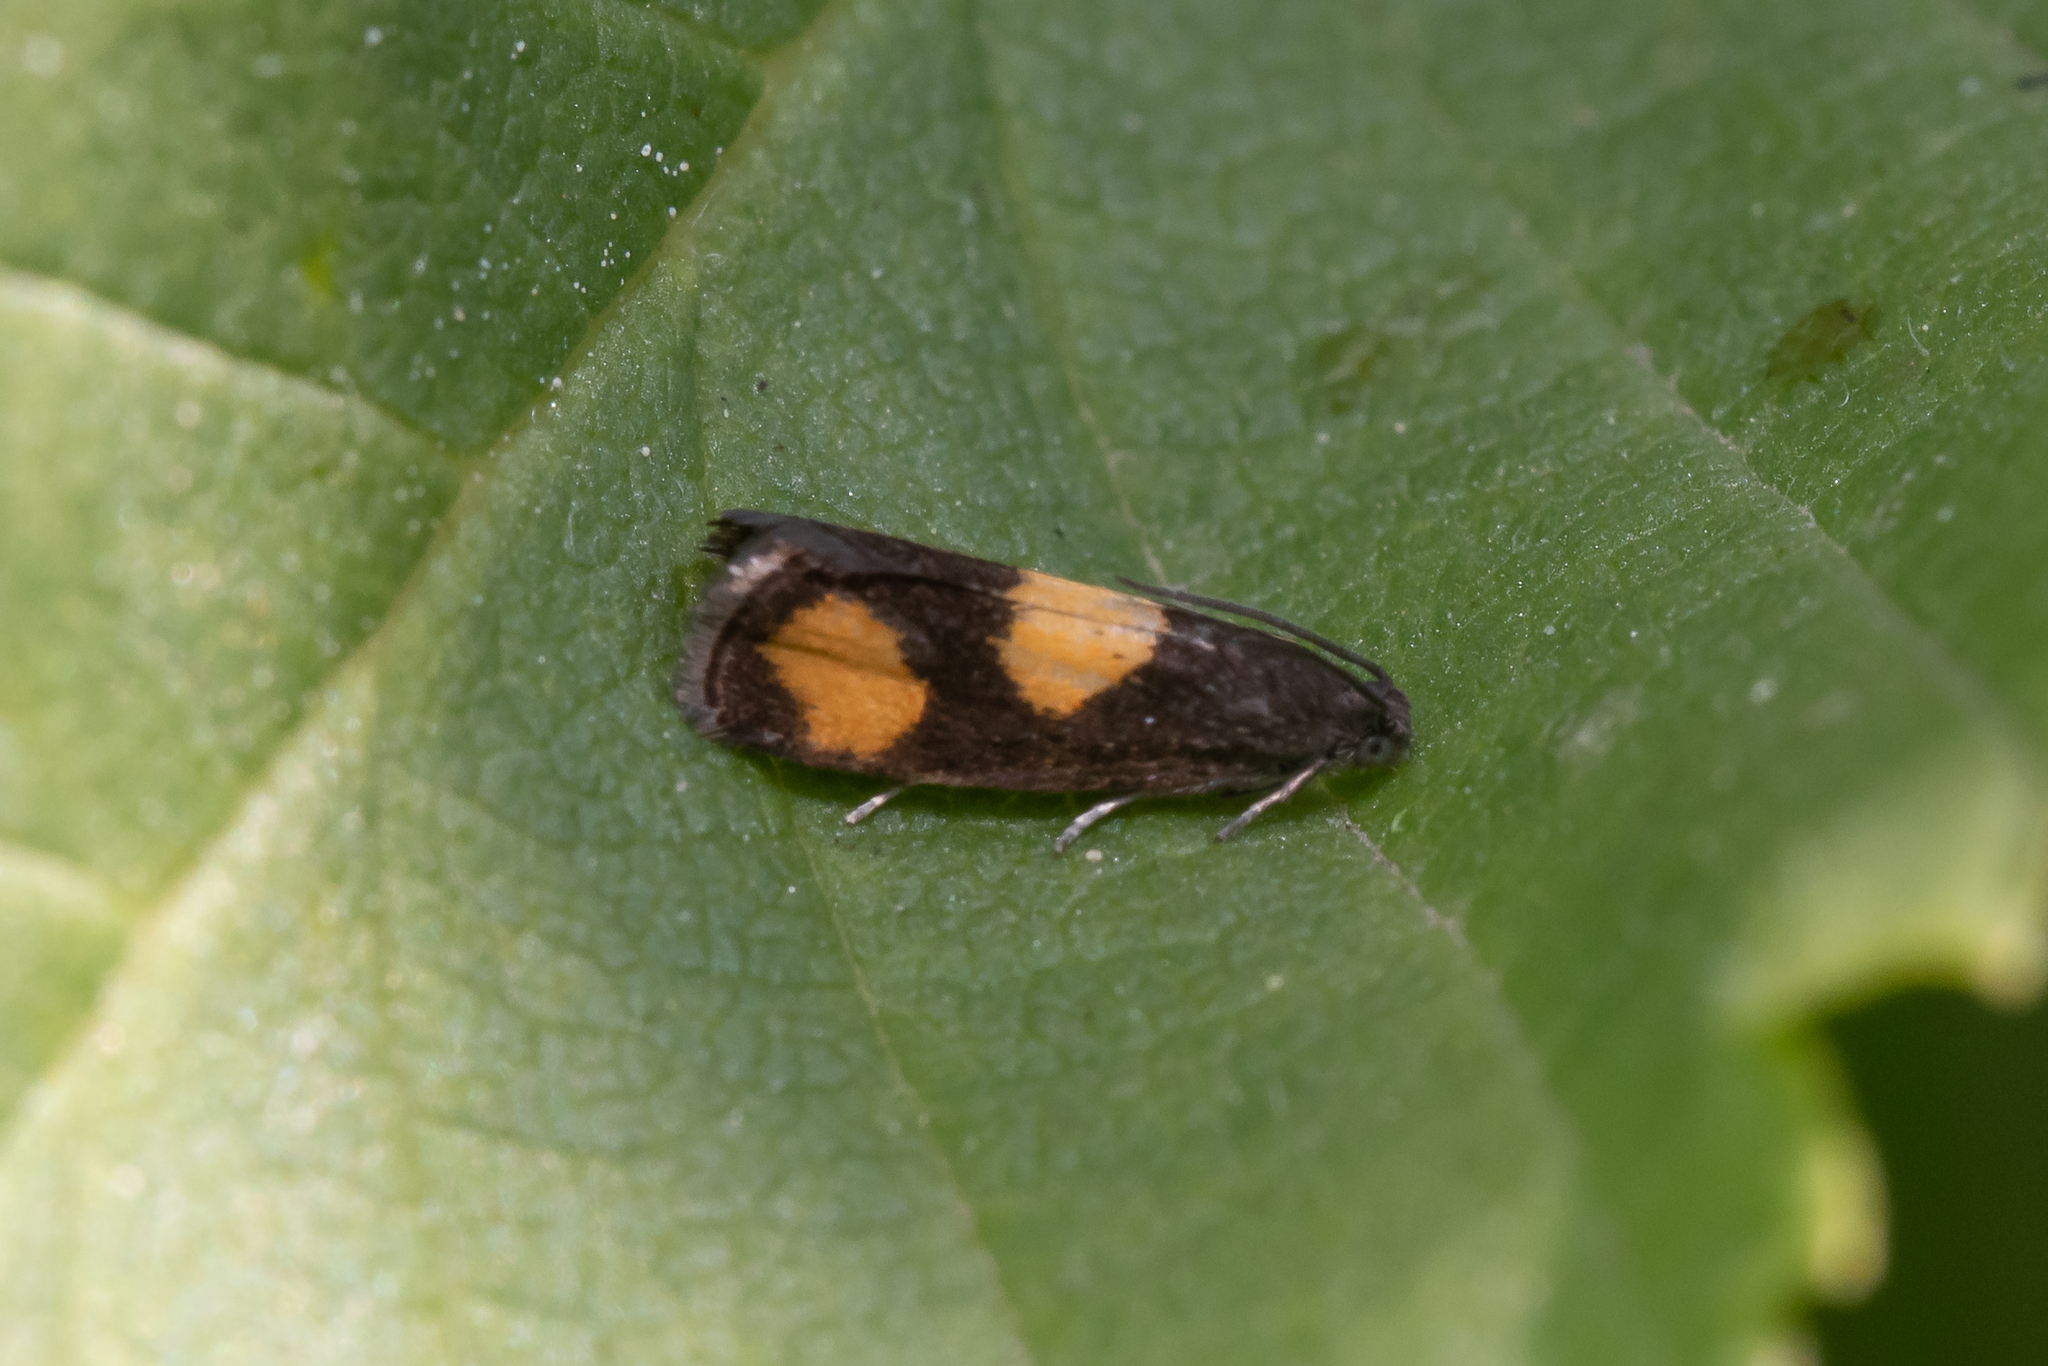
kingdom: Animalia
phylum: Arthropoda
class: Insecta
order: Lepidoptera
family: Tortricidae
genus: Pammene
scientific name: Pammene aurana
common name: Orange-spot piercer
